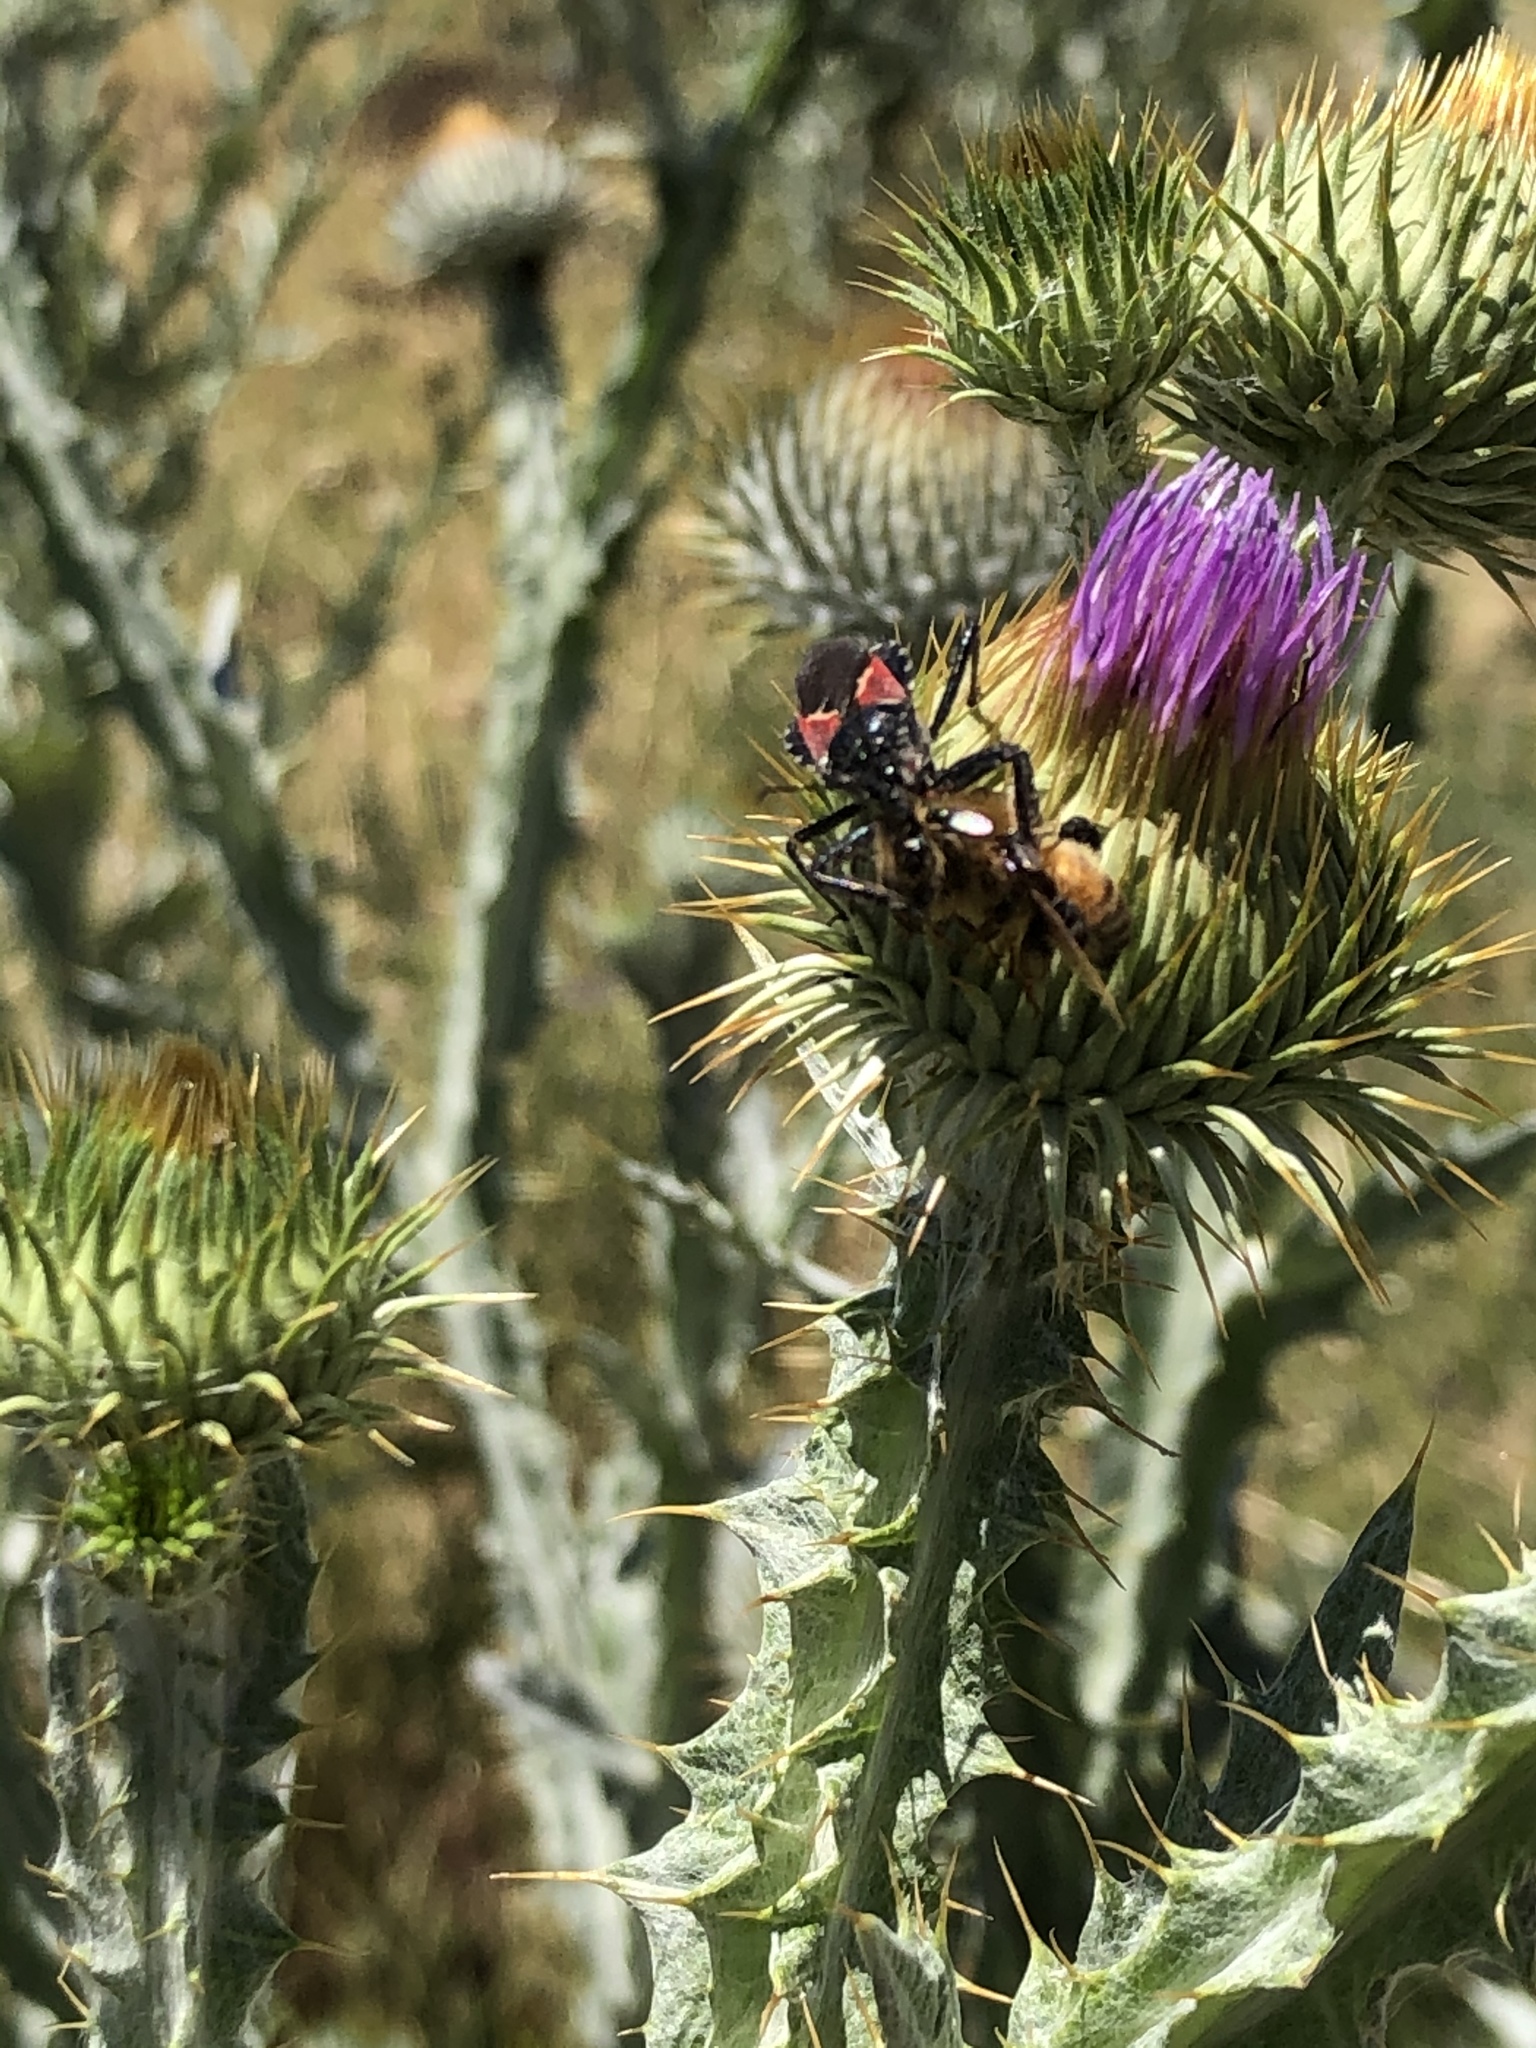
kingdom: Animalia
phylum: Arthropoda
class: Insecta
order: Hemiptera
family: Reduviidae
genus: Apiomerus
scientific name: Apiomerus montanus
